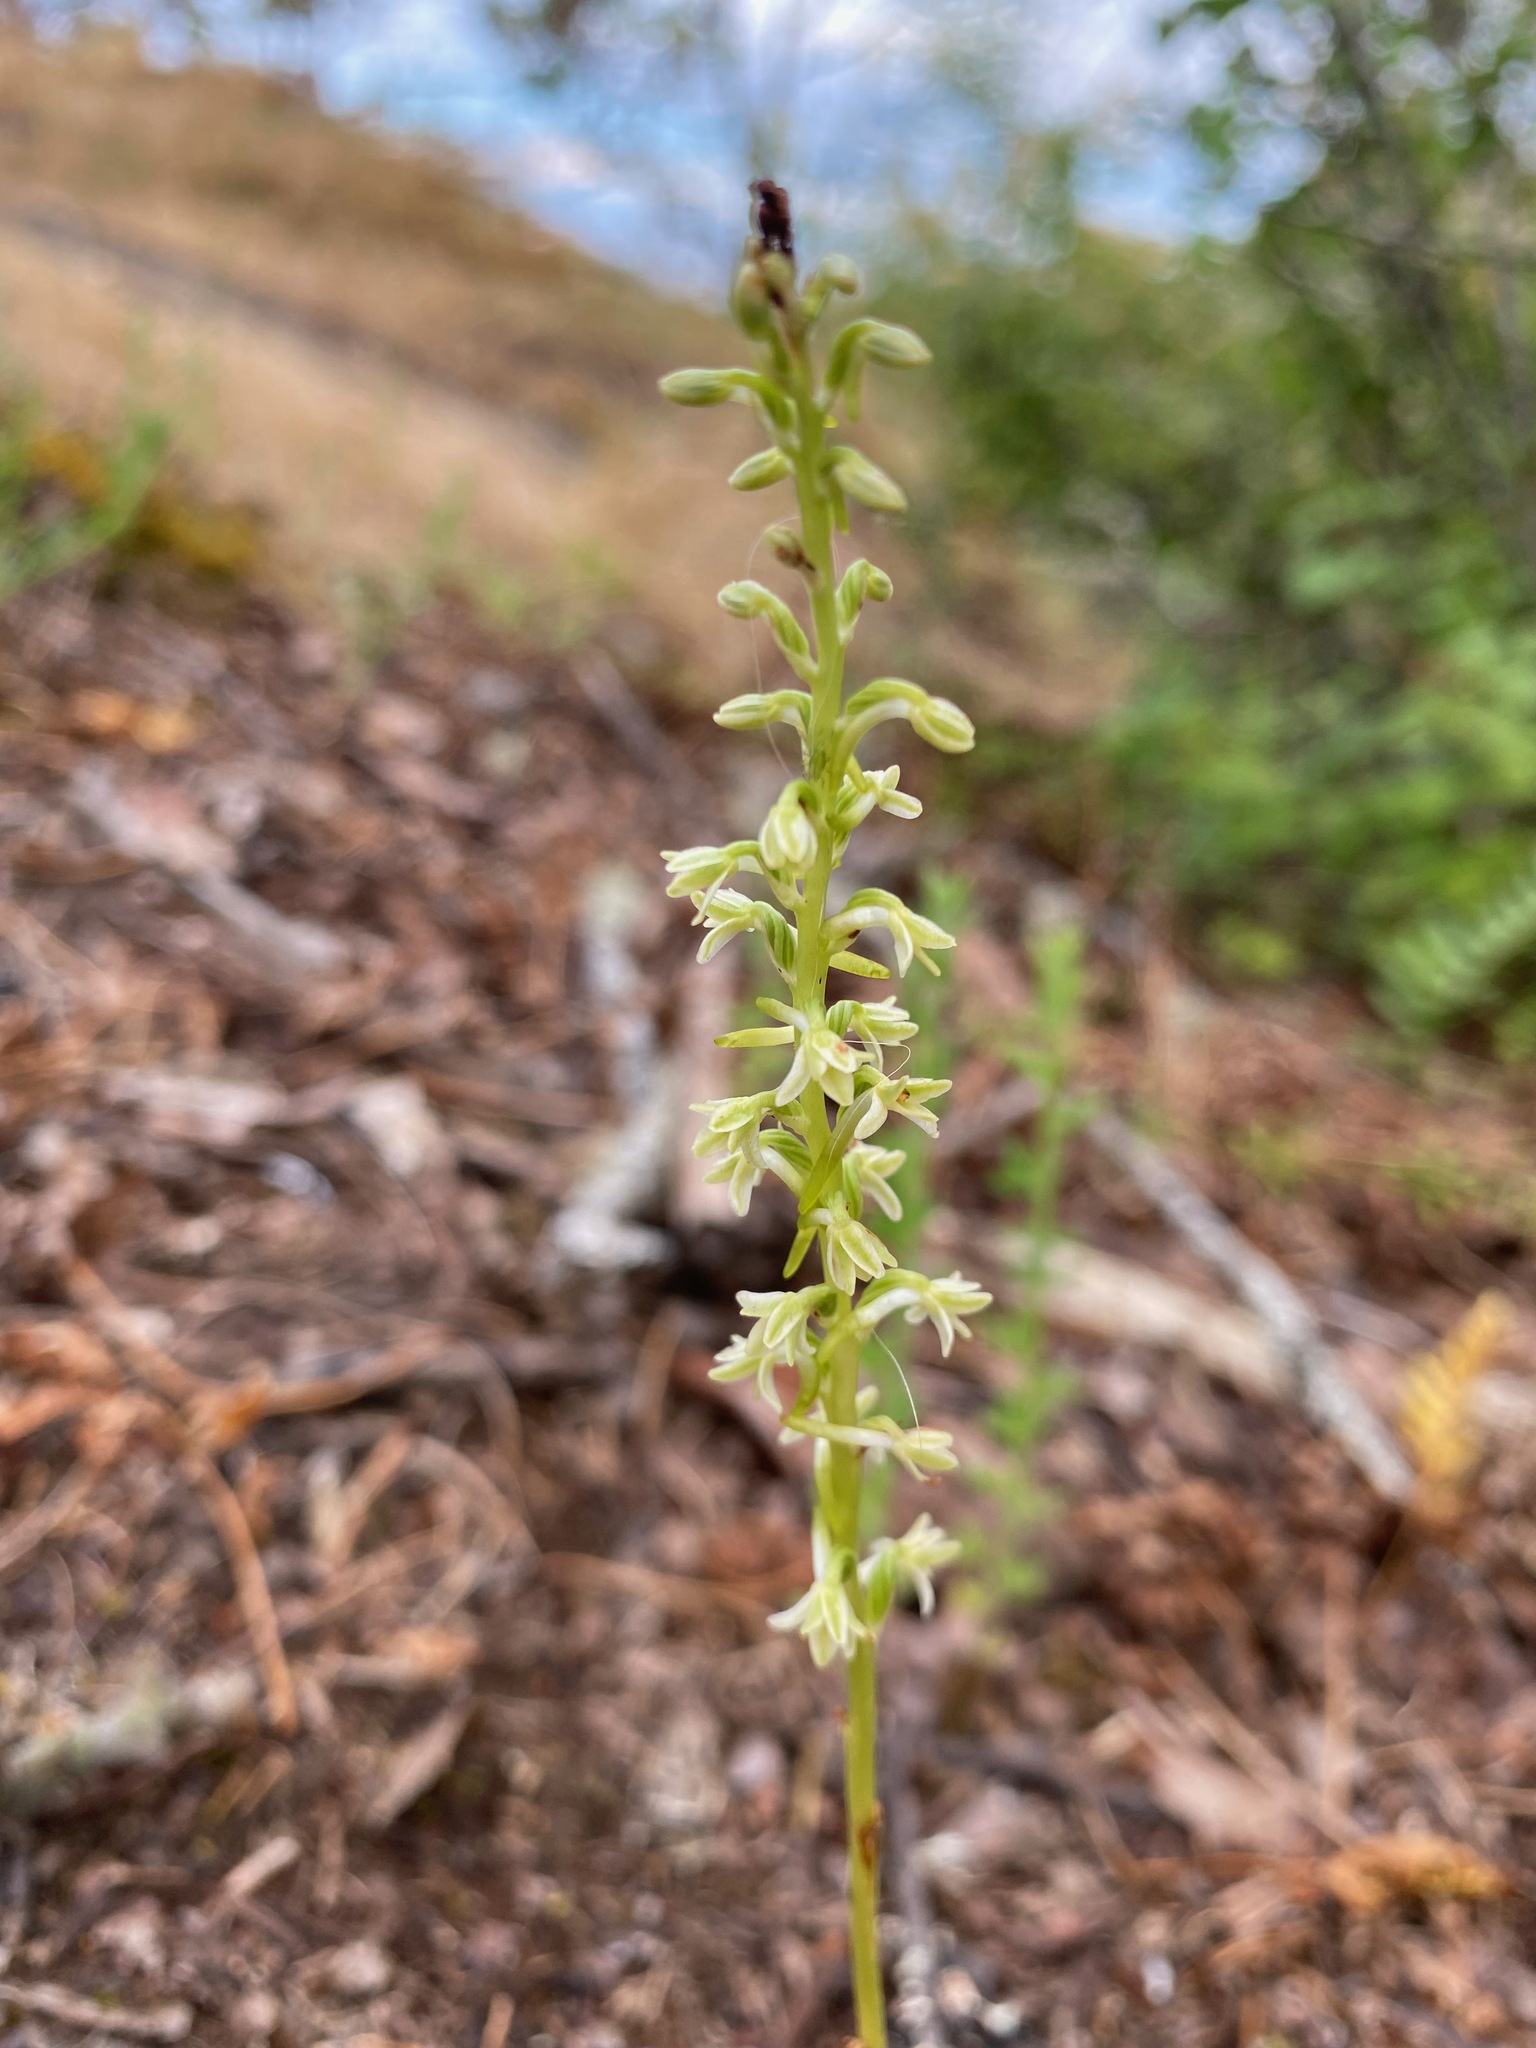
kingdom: Plantae
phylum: Tracheophyta
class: Liliopsida
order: Asparagales
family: Orchidaceae
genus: Platanthera
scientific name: Platanthera transversa
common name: Royal rein orchid
